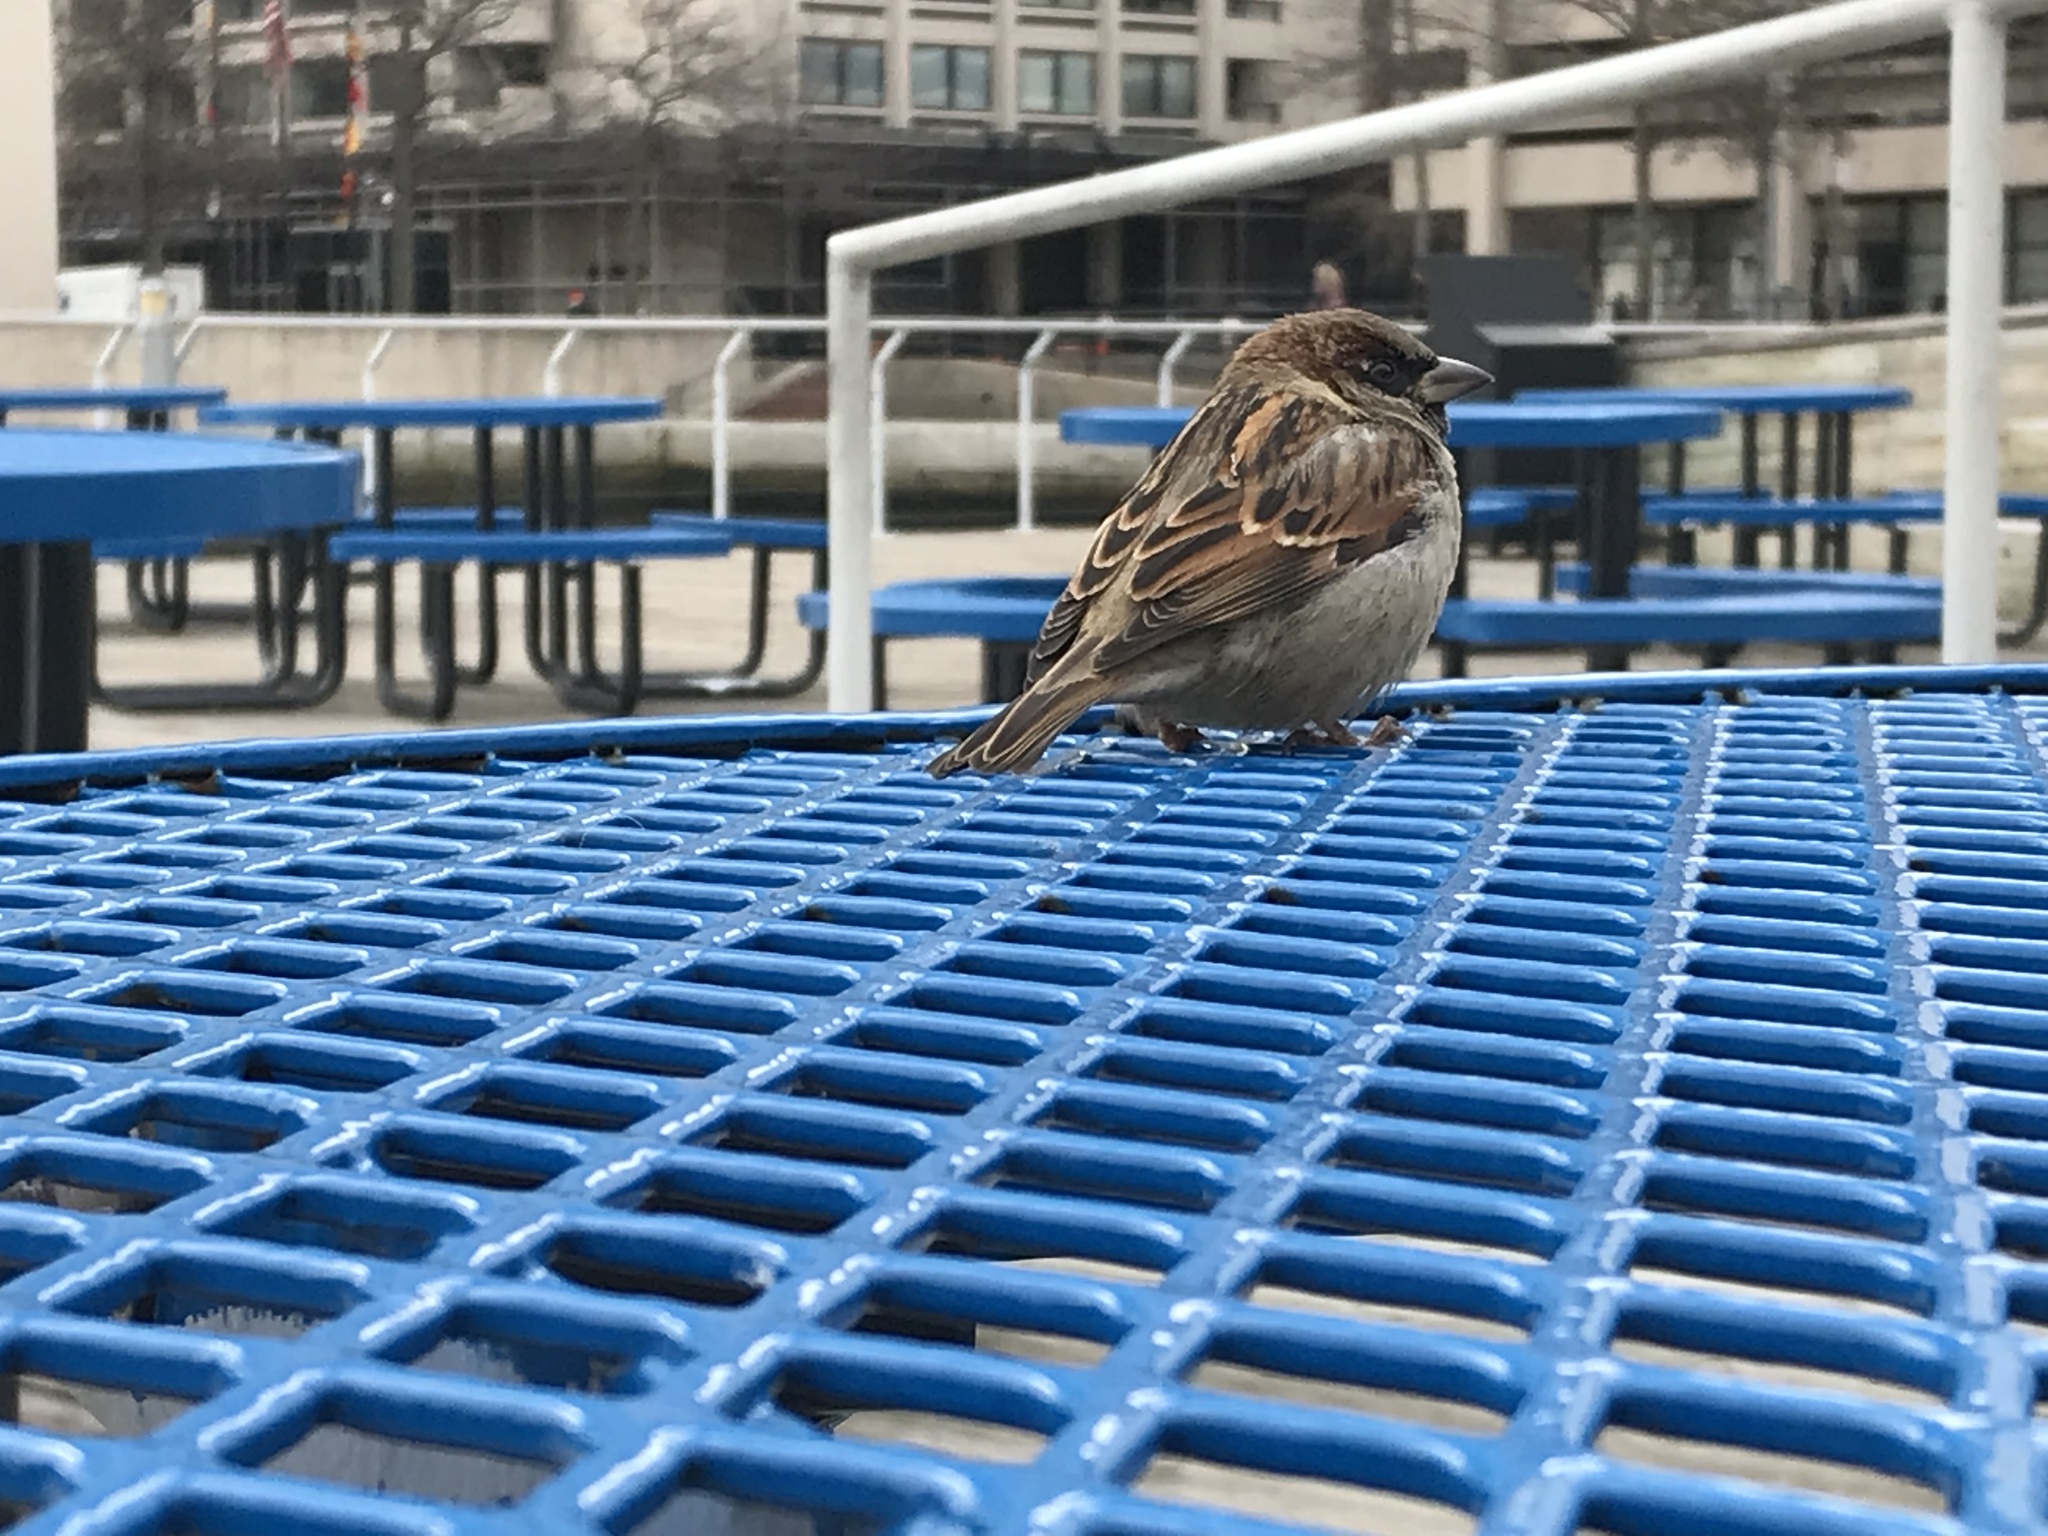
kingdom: Animalia
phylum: Chordata
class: Aves
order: Passeriformes
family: Passeridae
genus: Passer
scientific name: Passer domesticus
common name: House sparrow
